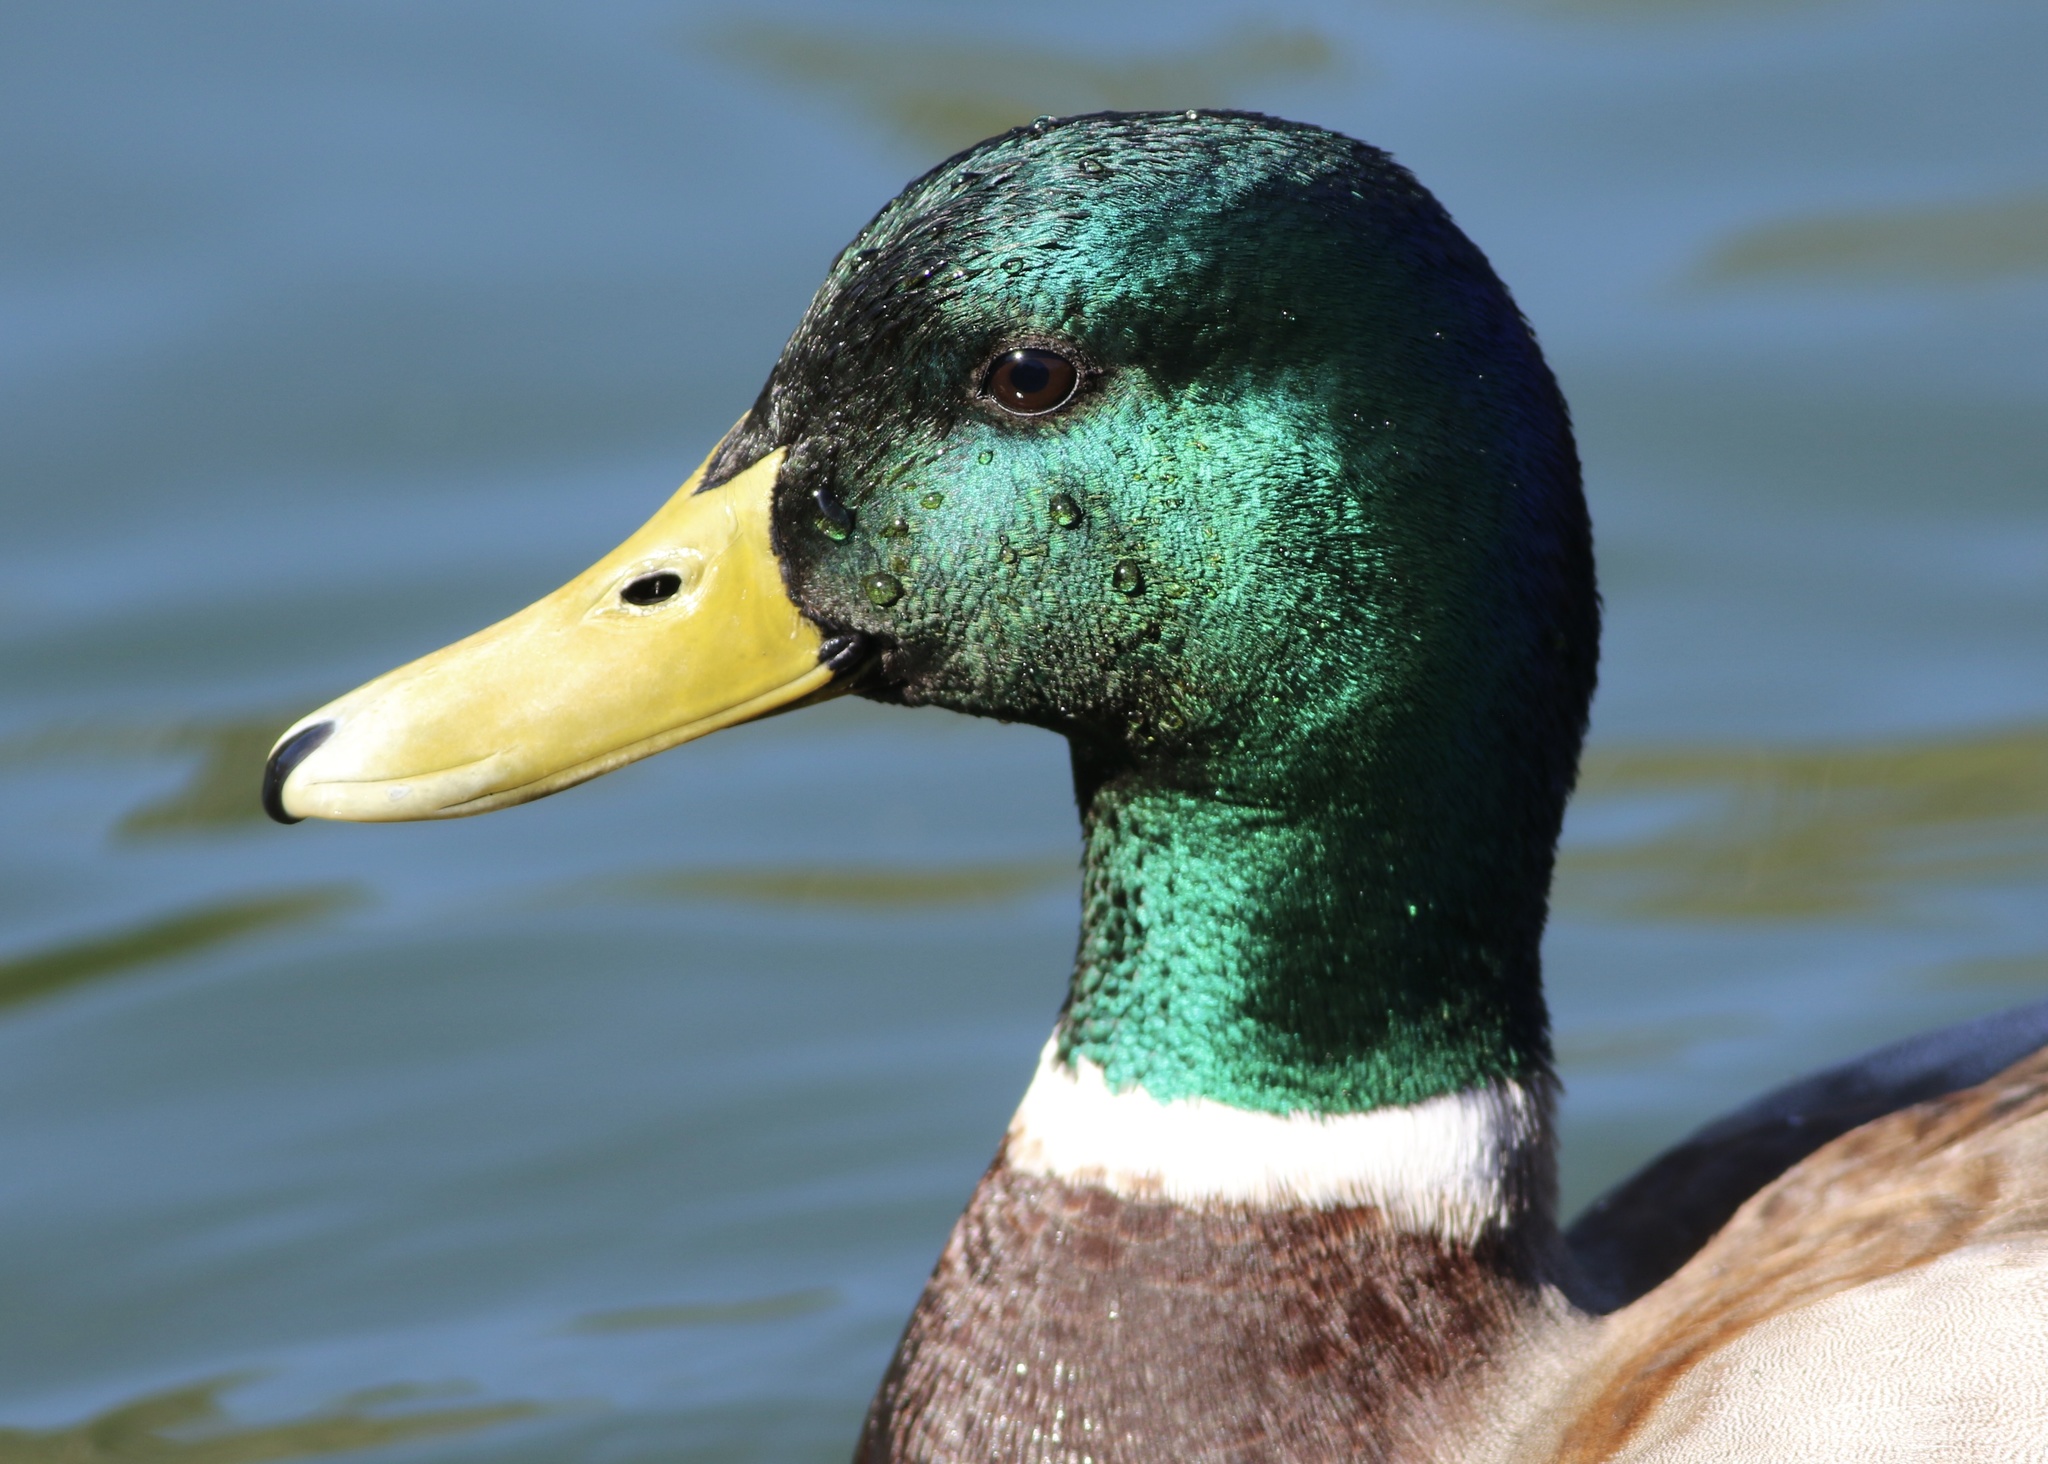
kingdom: Animalia
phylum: Chordata
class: Aves
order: Anseriformes
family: Anatidae
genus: Anas
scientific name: Anas platyrhynchos
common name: Mallard
